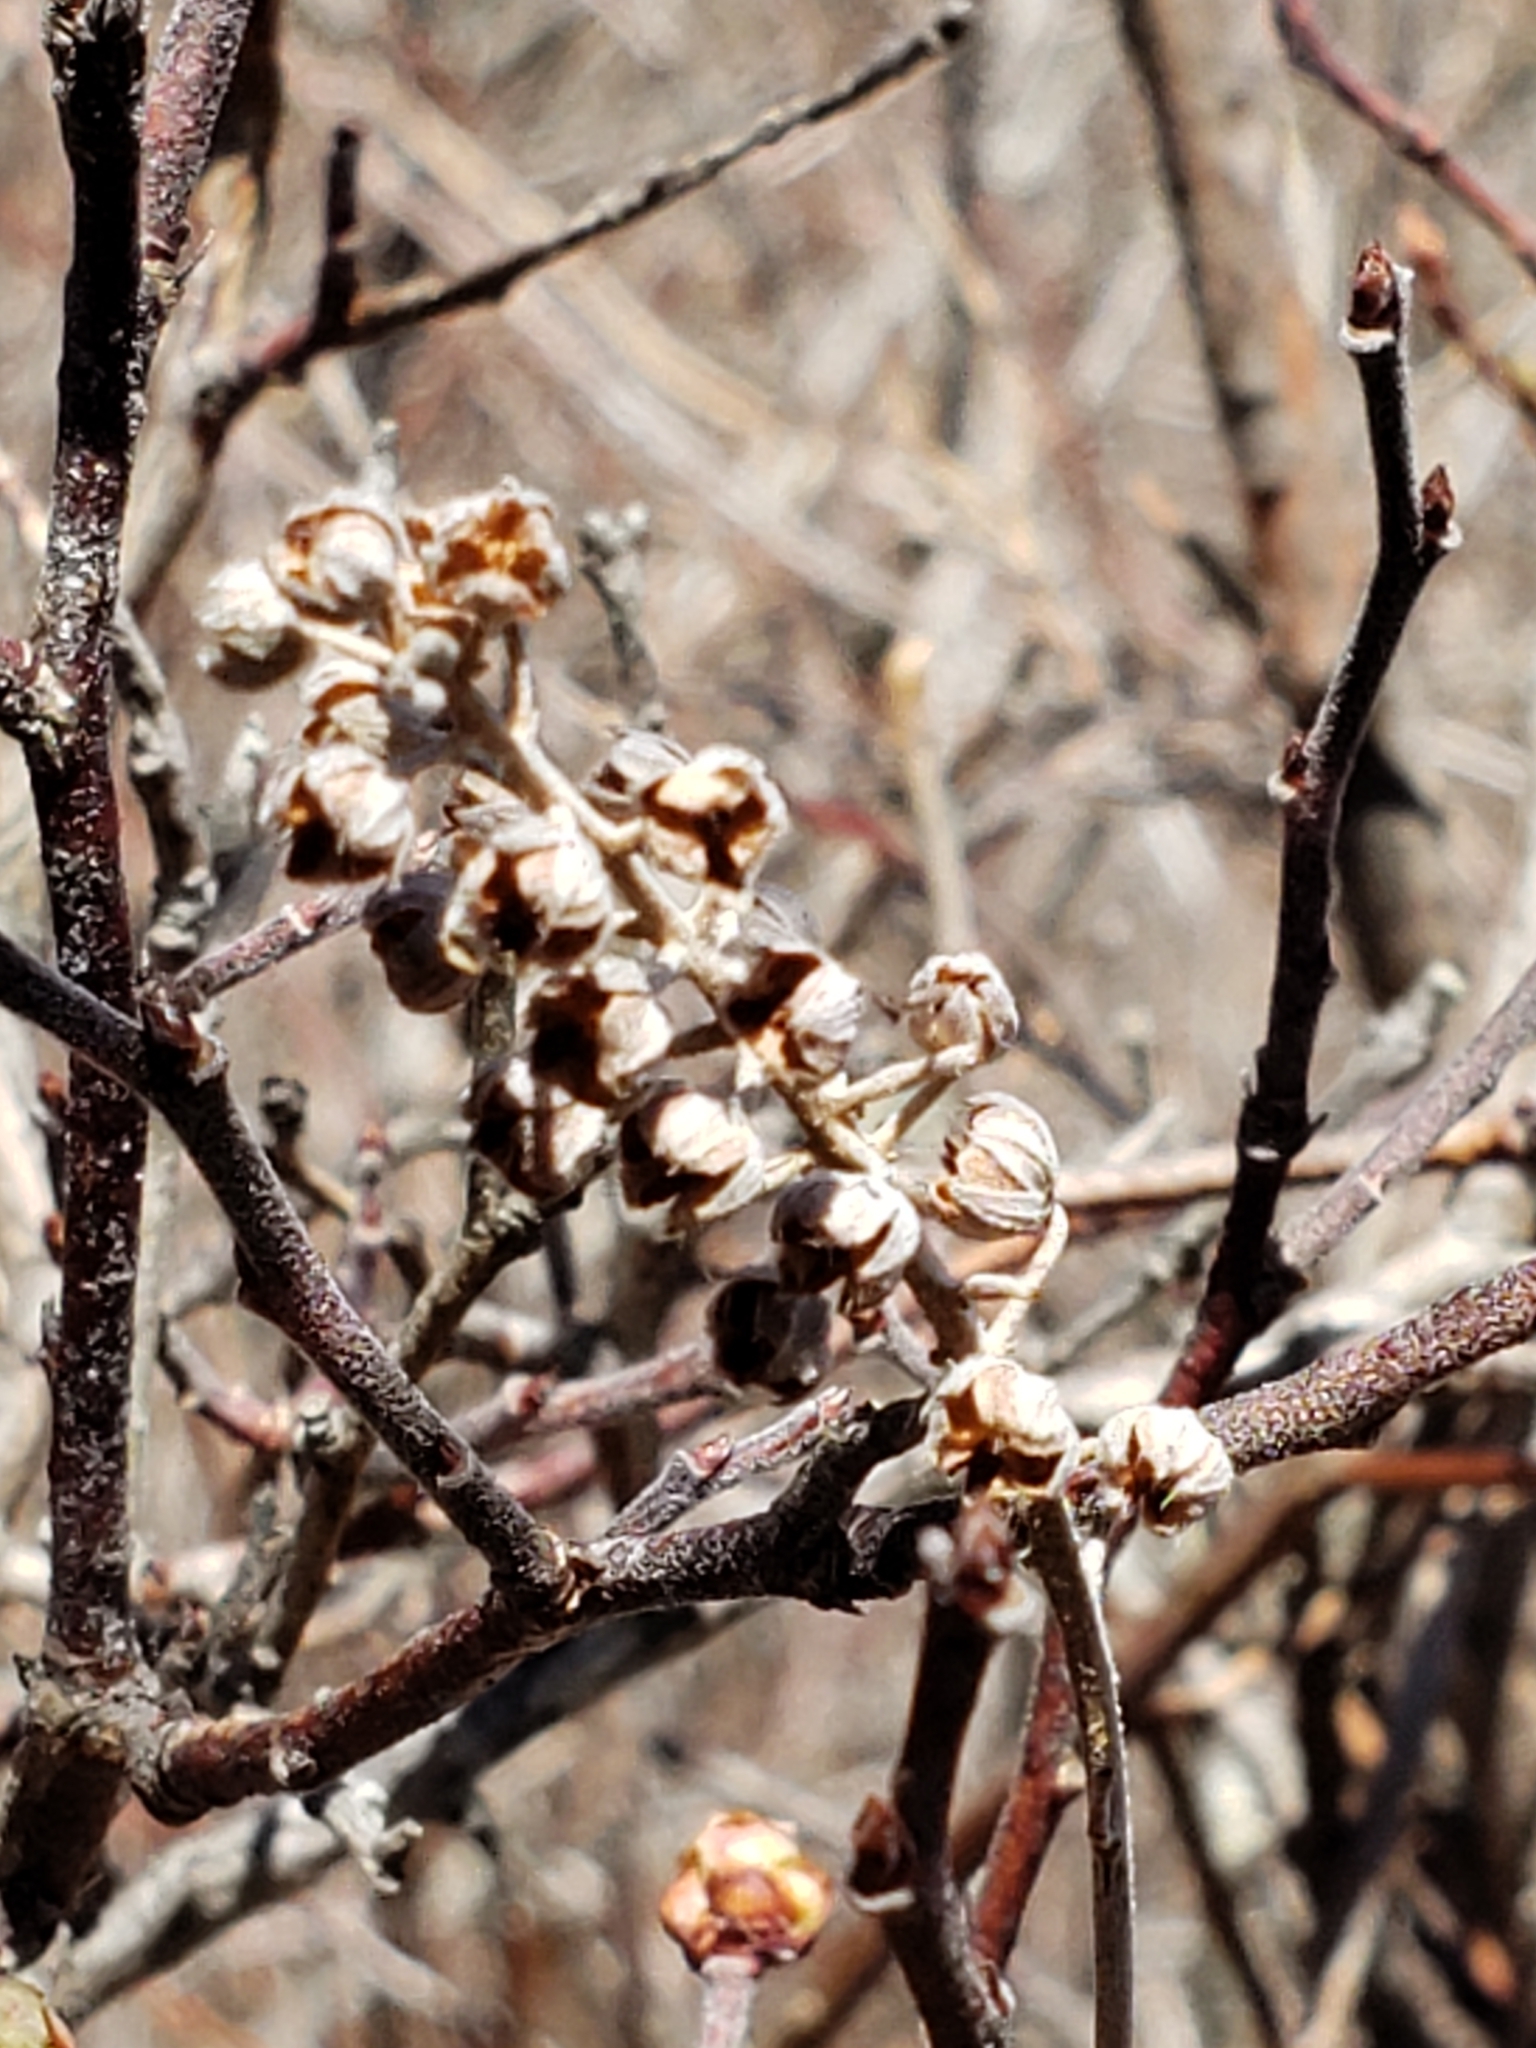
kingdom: Plantae
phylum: Tracheophyta
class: Magnoliopsida
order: Ericales
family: Clethraceae
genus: Clethra
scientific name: Clethra alnifolia
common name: Sweet pepperbush
